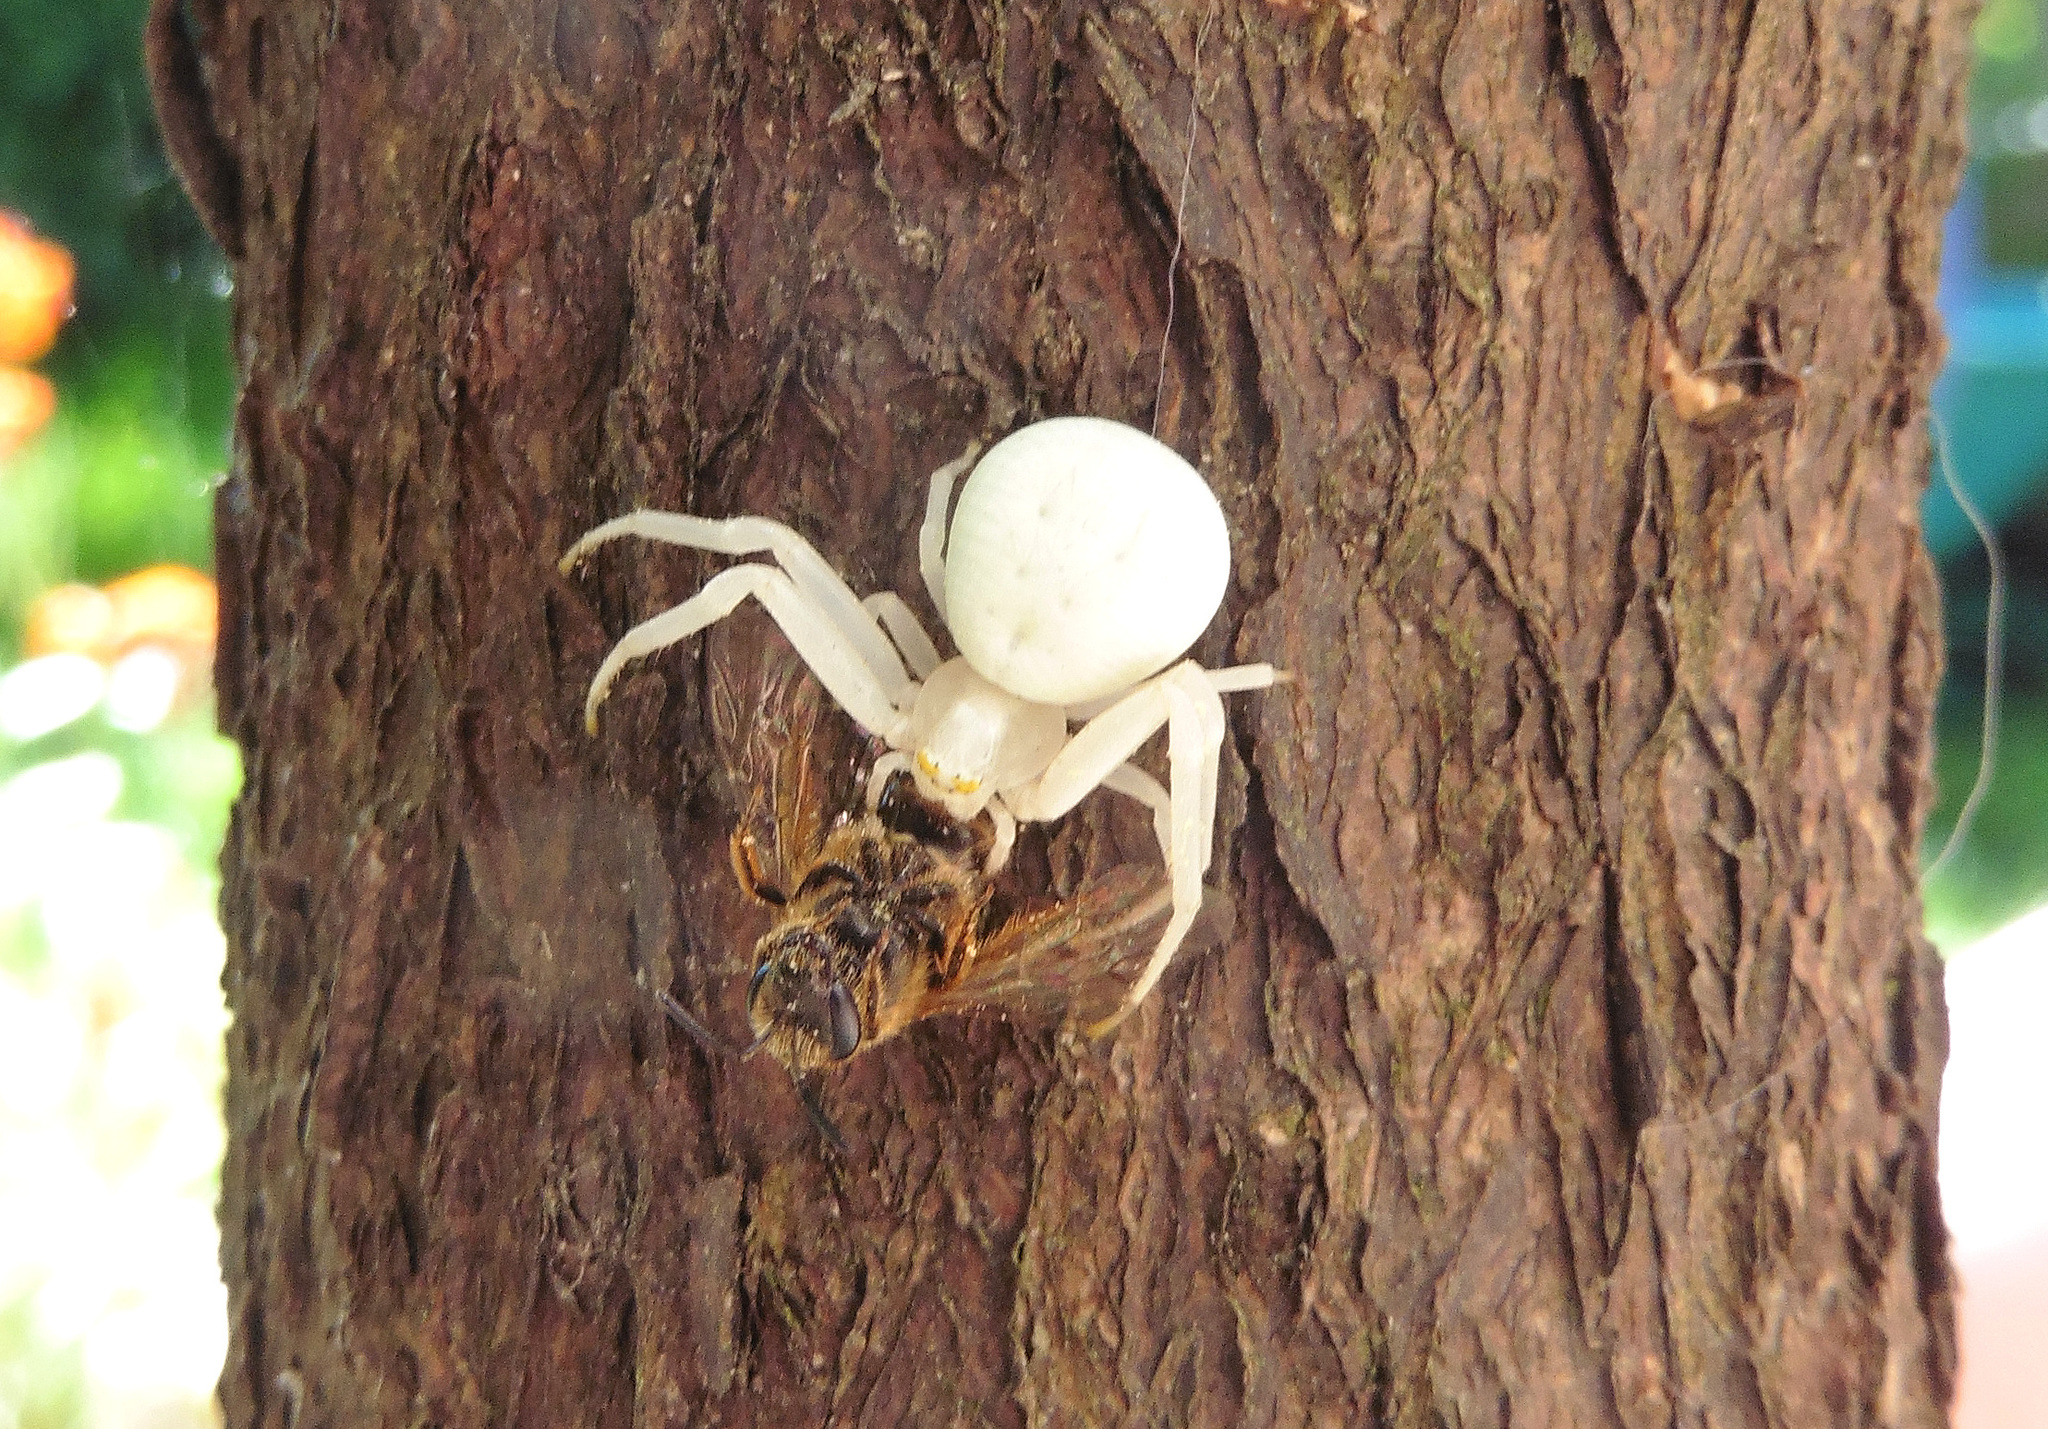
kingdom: Animalia
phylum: Arthropoda
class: Arachnida
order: Araneae
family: Thomisidae
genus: Misumena
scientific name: Misumena vatia
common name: Goldenrod crab spider
